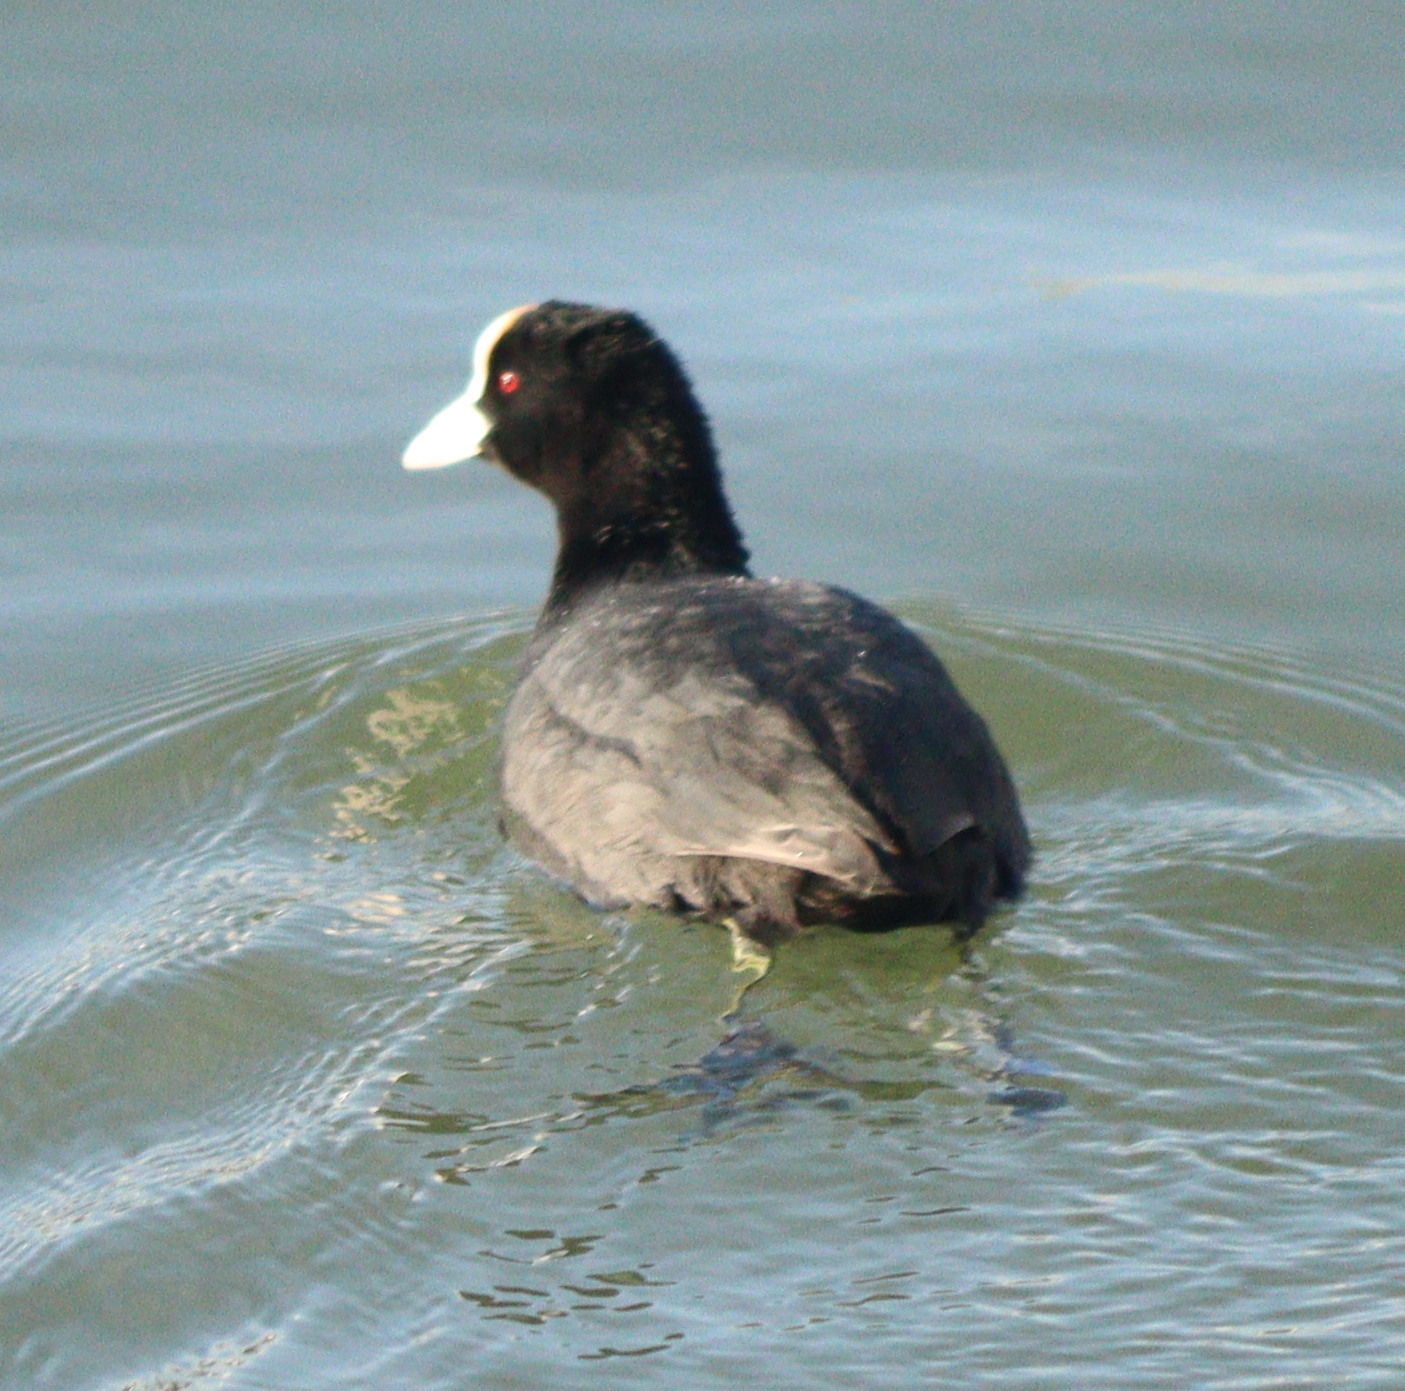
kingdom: Animalia
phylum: Chordata
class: Aves
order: Gruiformes
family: Rallidae
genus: Fulica
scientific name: Fulica atra
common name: Eurasian coot
